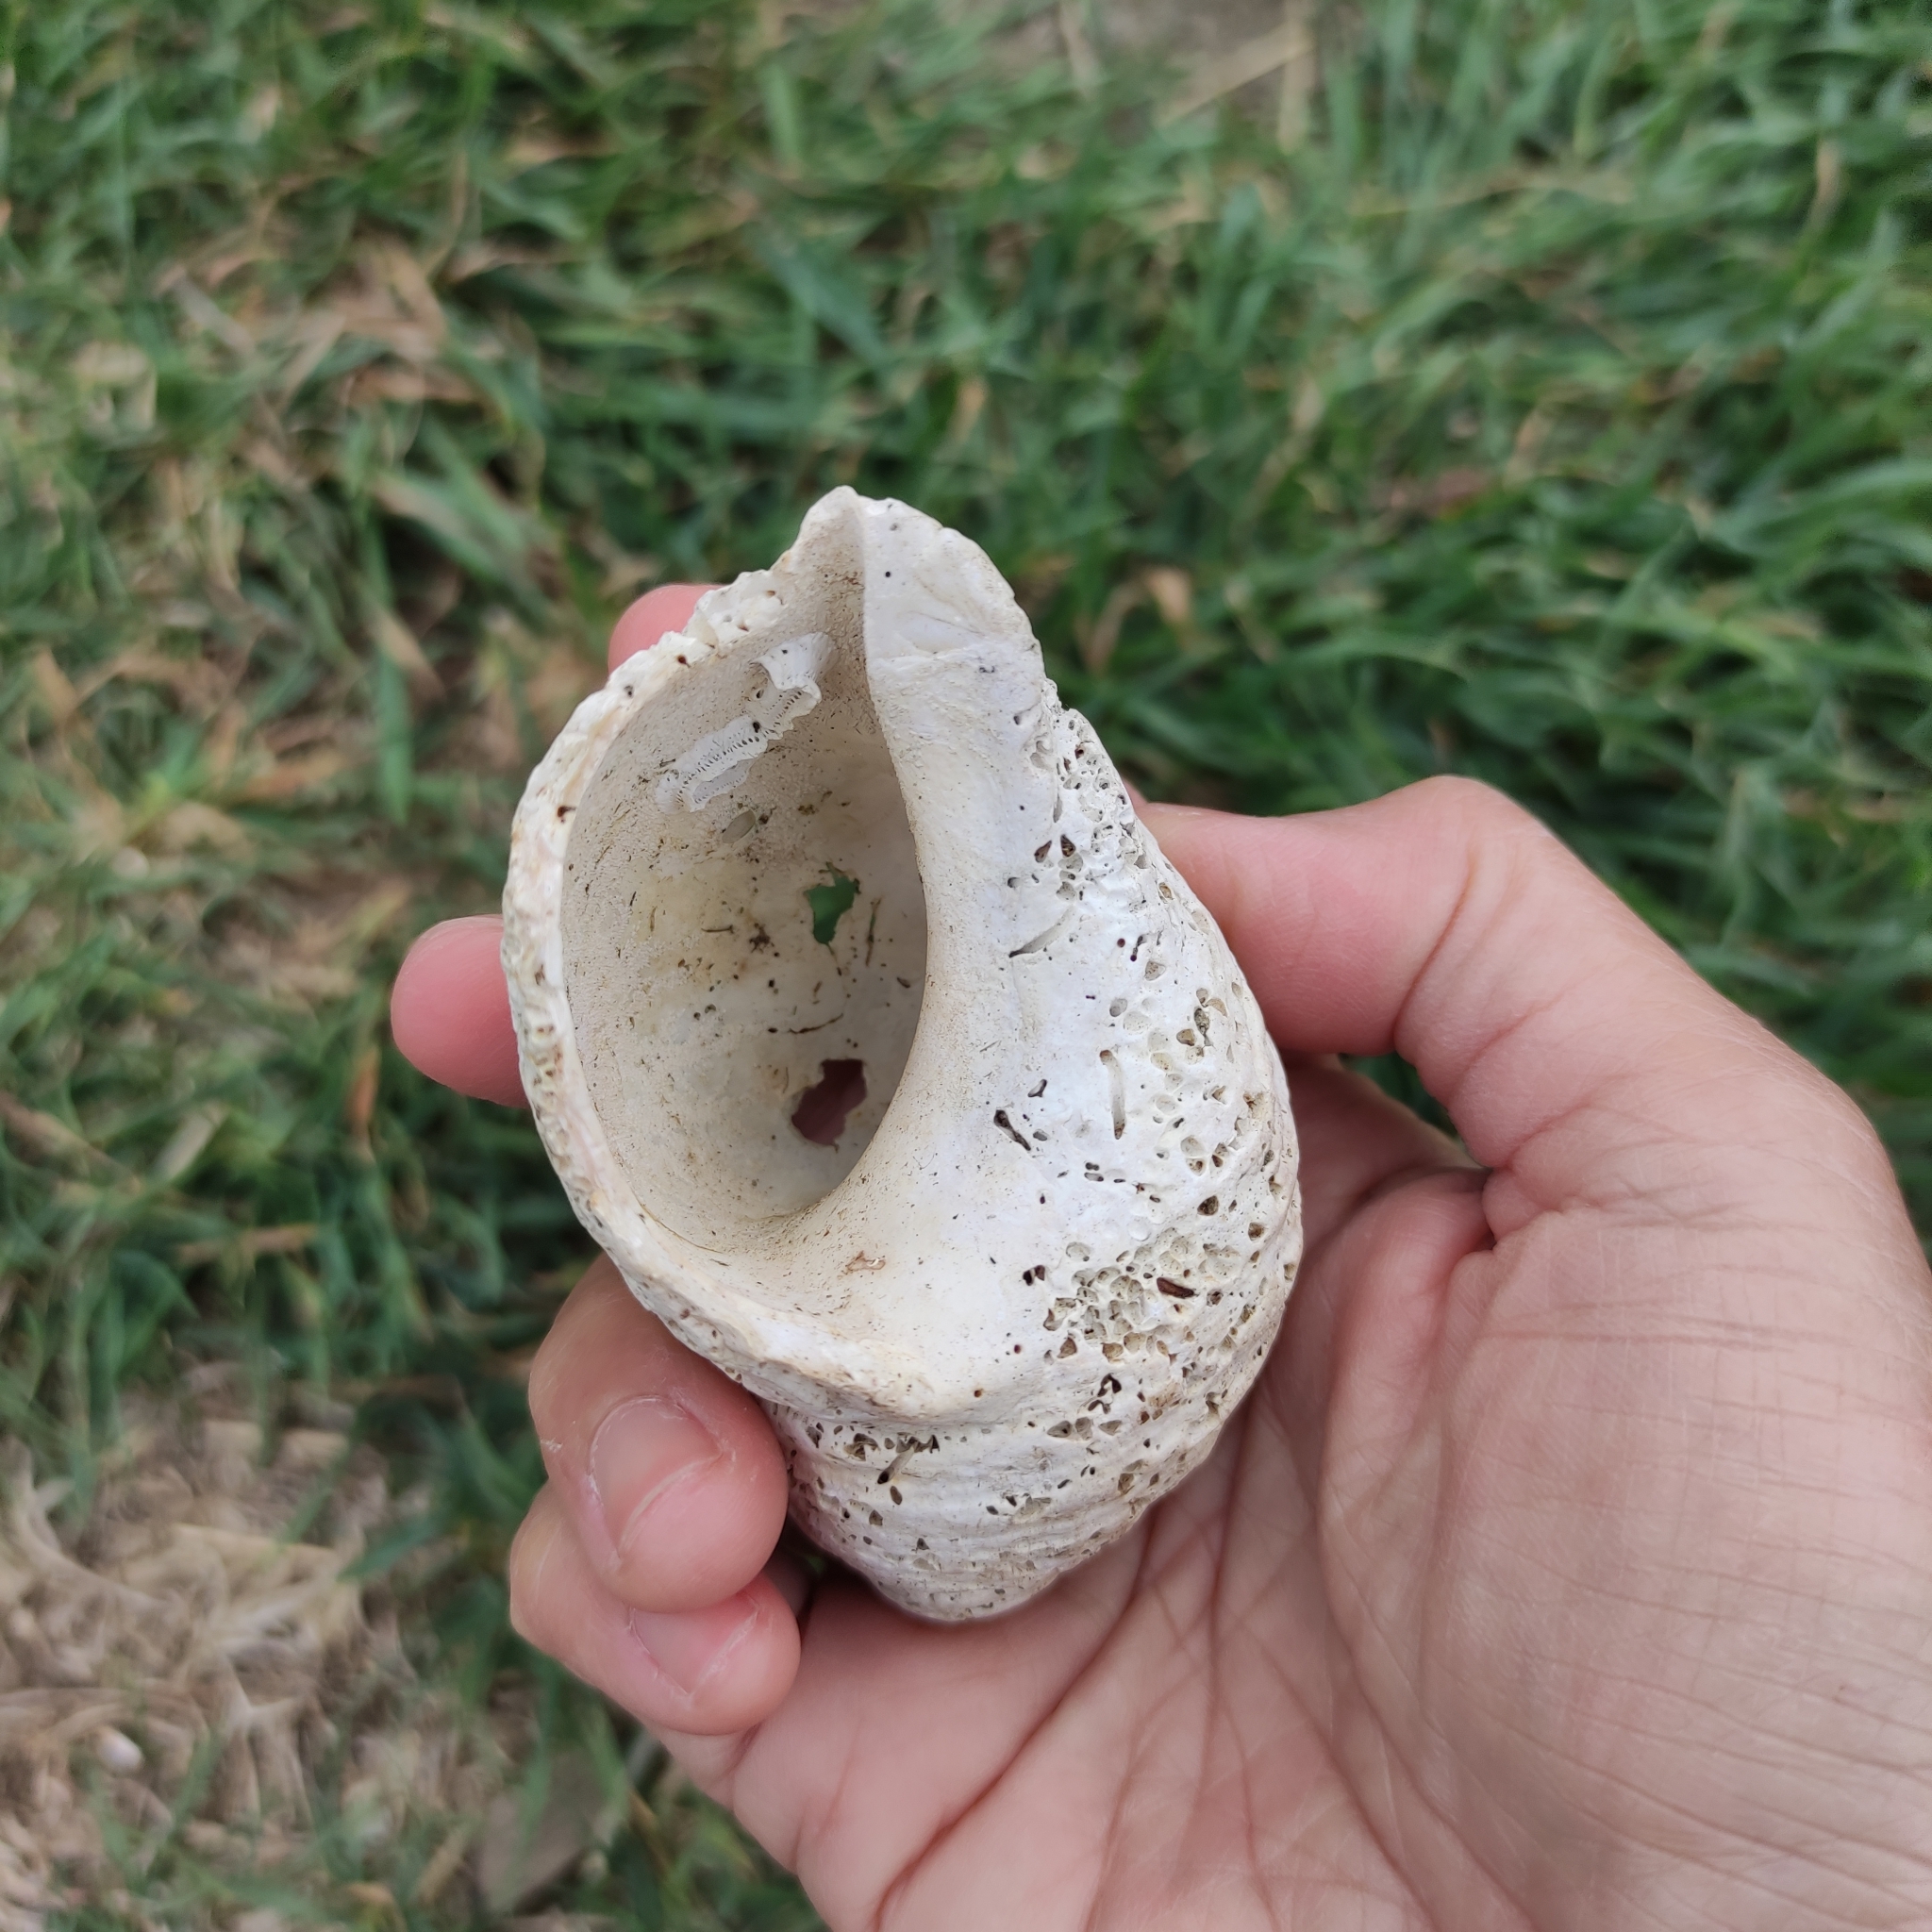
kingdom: Animalia
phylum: Mollusca
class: Gastropoda
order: Neogastropoda
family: Muricidae
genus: Dicathais
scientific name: Dicathais orbita
